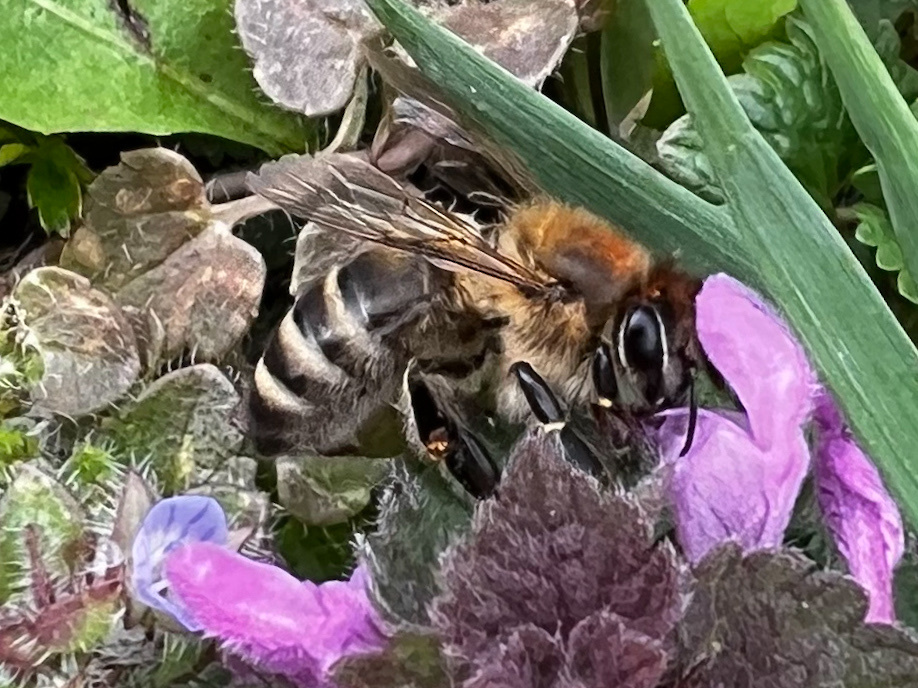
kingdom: Animalia
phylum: Arthropoda
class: Insecta
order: Hymenoptera
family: Apidae
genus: Apis
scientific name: Apis mellifera
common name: Honey bee
